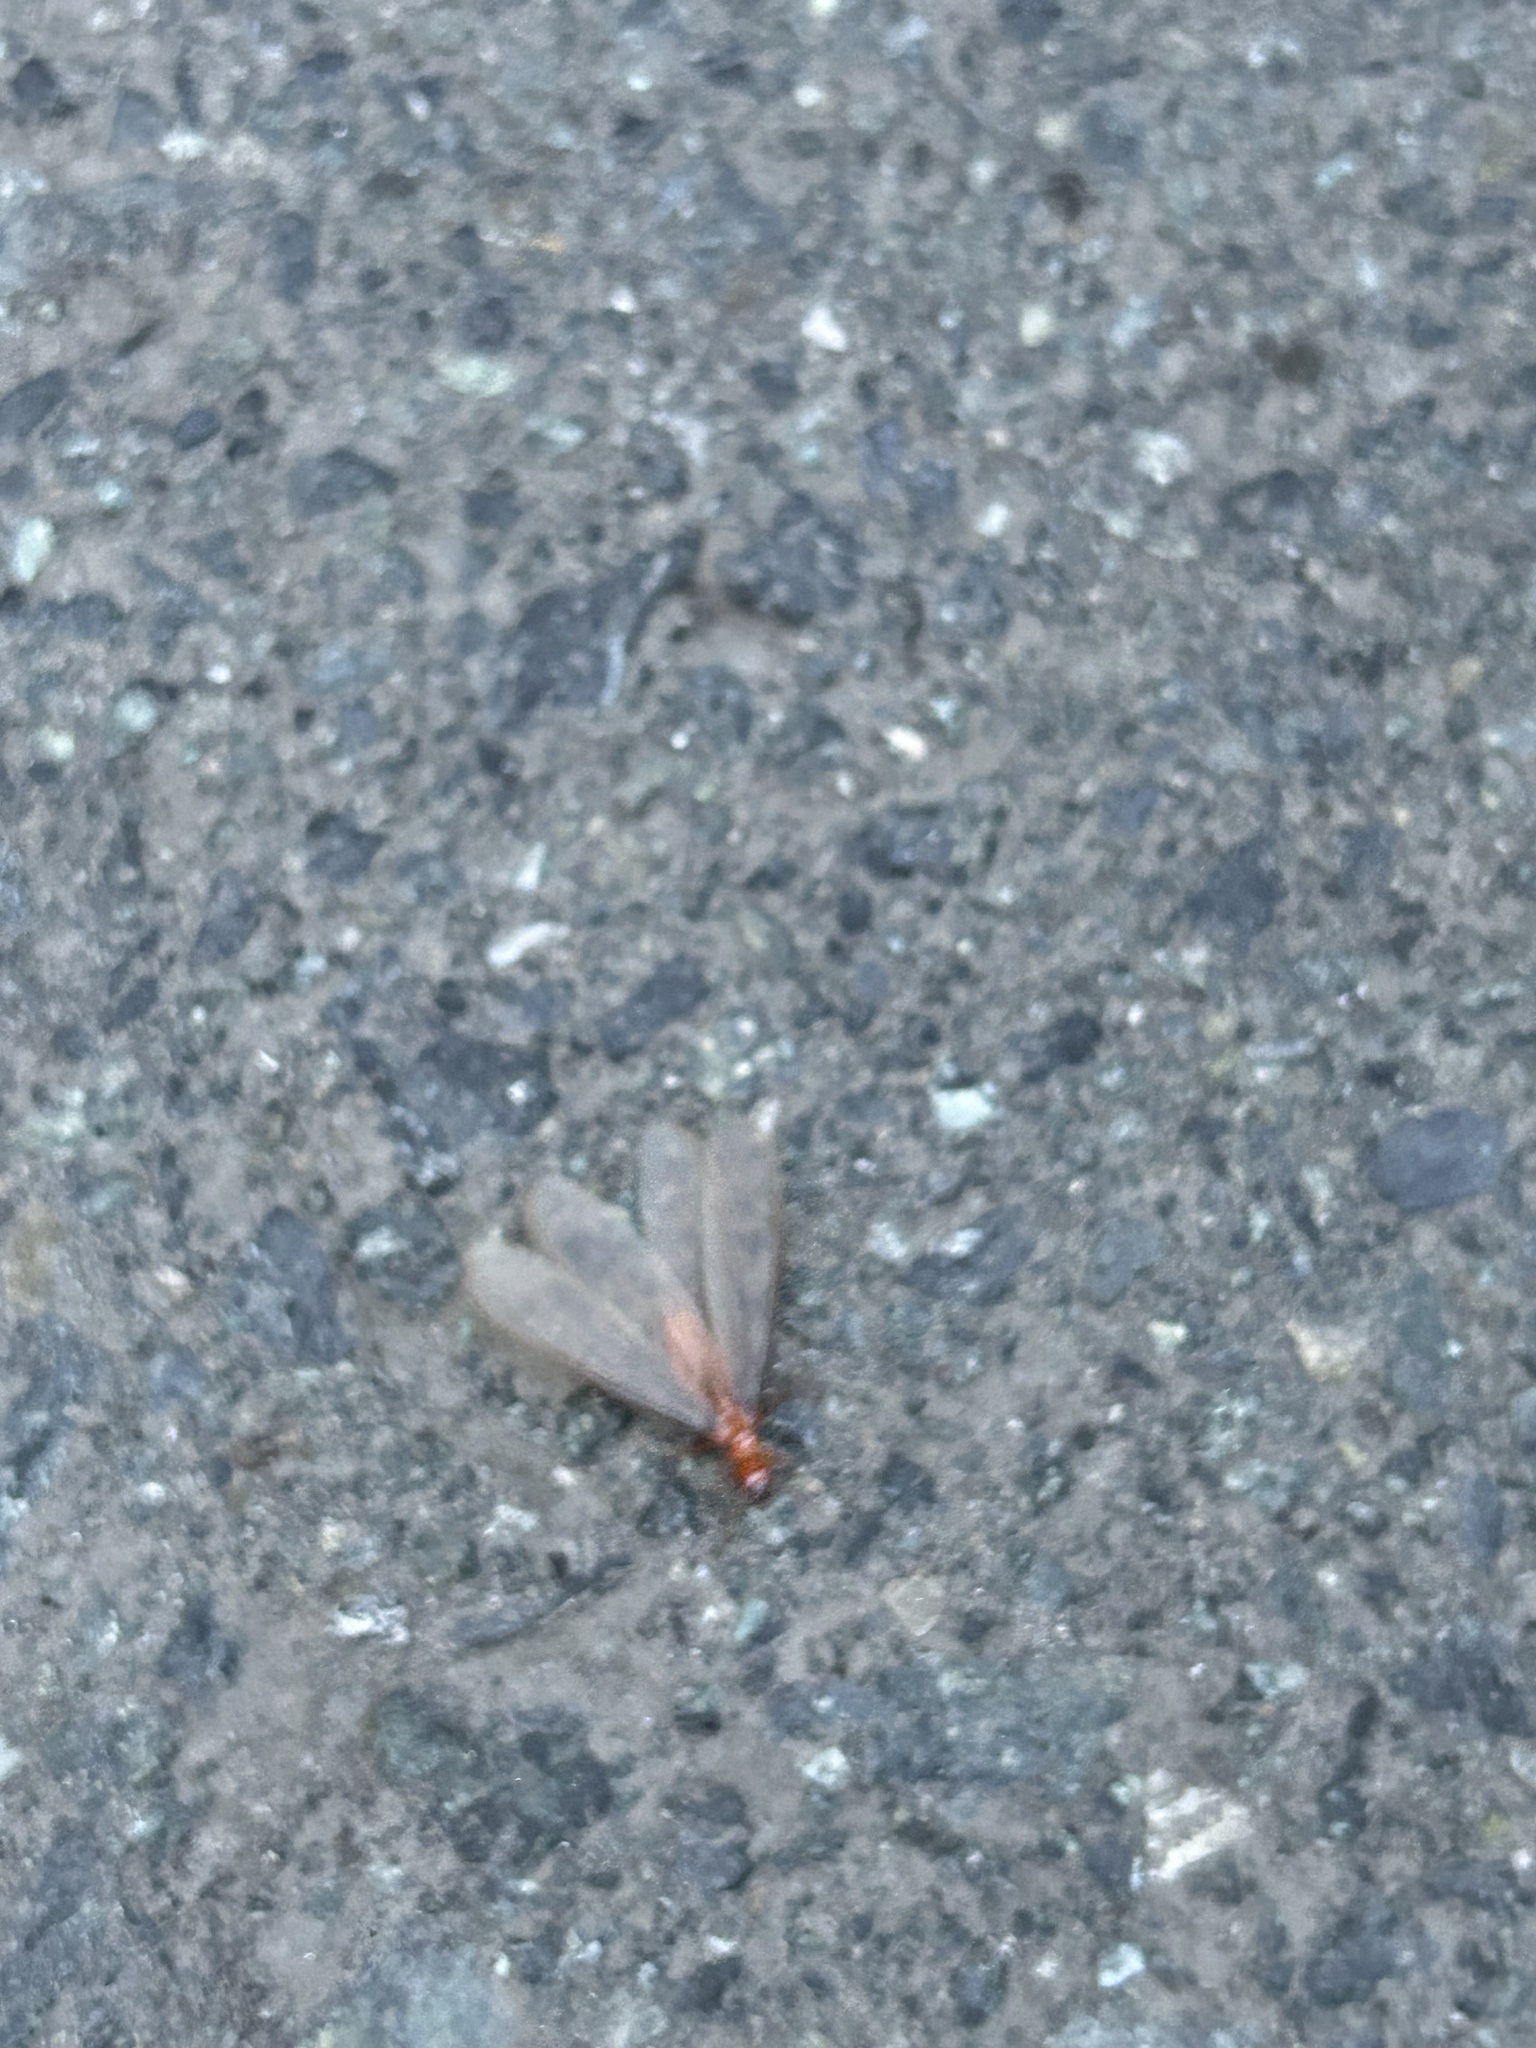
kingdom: Animalia
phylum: Arthropoda
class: Insecta
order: Blattodea
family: Archotermopsidae
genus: Zootermopsis
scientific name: Zootermopsis angusticollis
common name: Rottenwood termite
